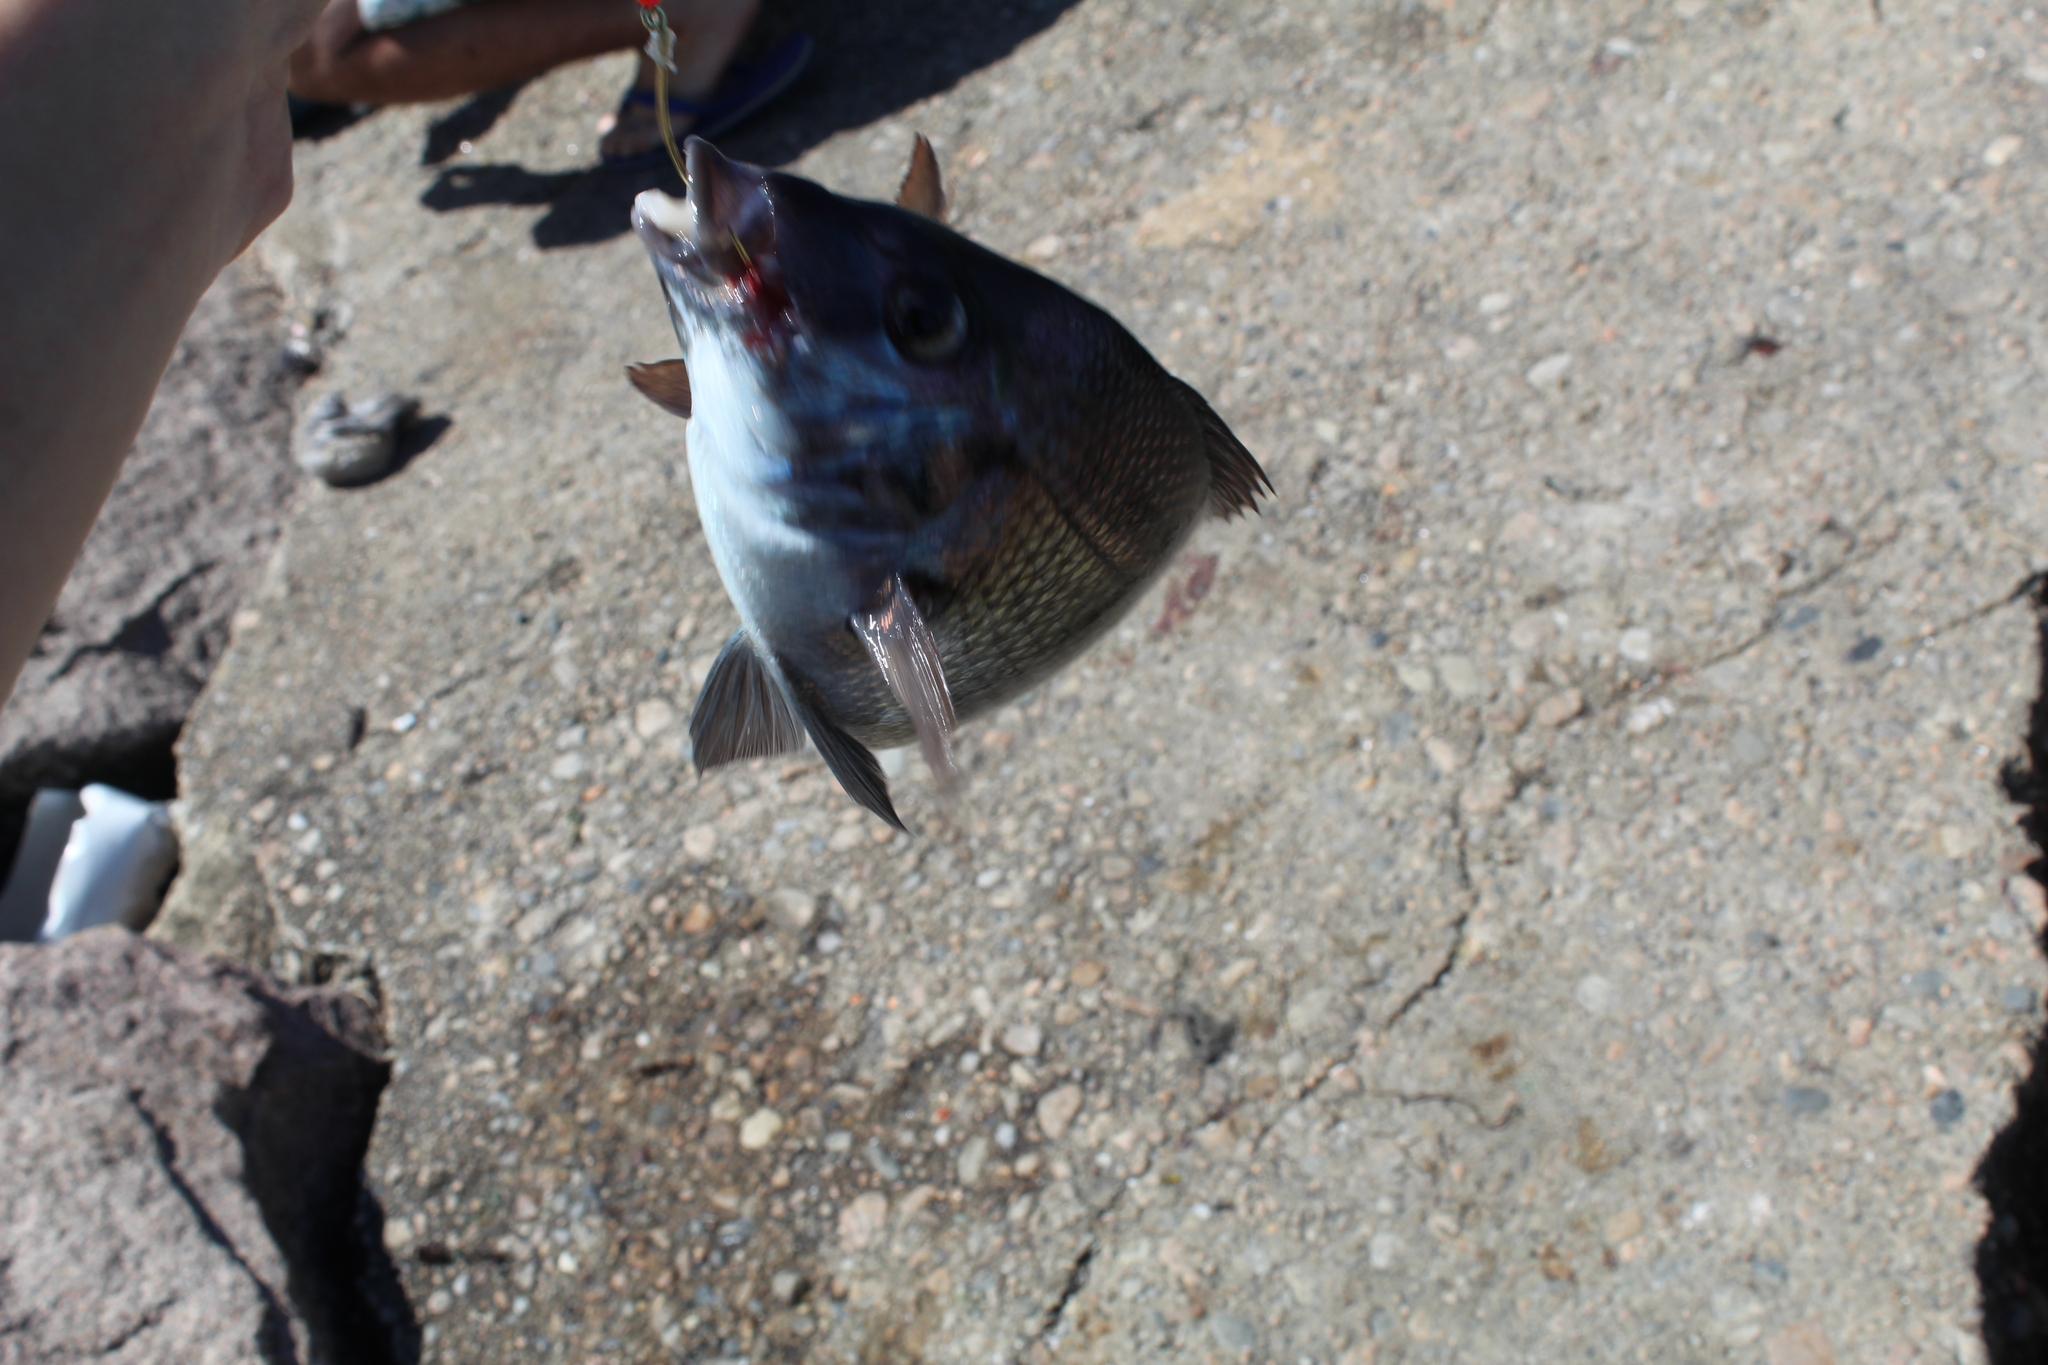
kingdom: Animalia
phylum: Chordata
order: Perciformes
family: Sparidae
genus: Stenotomus
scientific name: Stenotomus chrysops
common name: Scup
